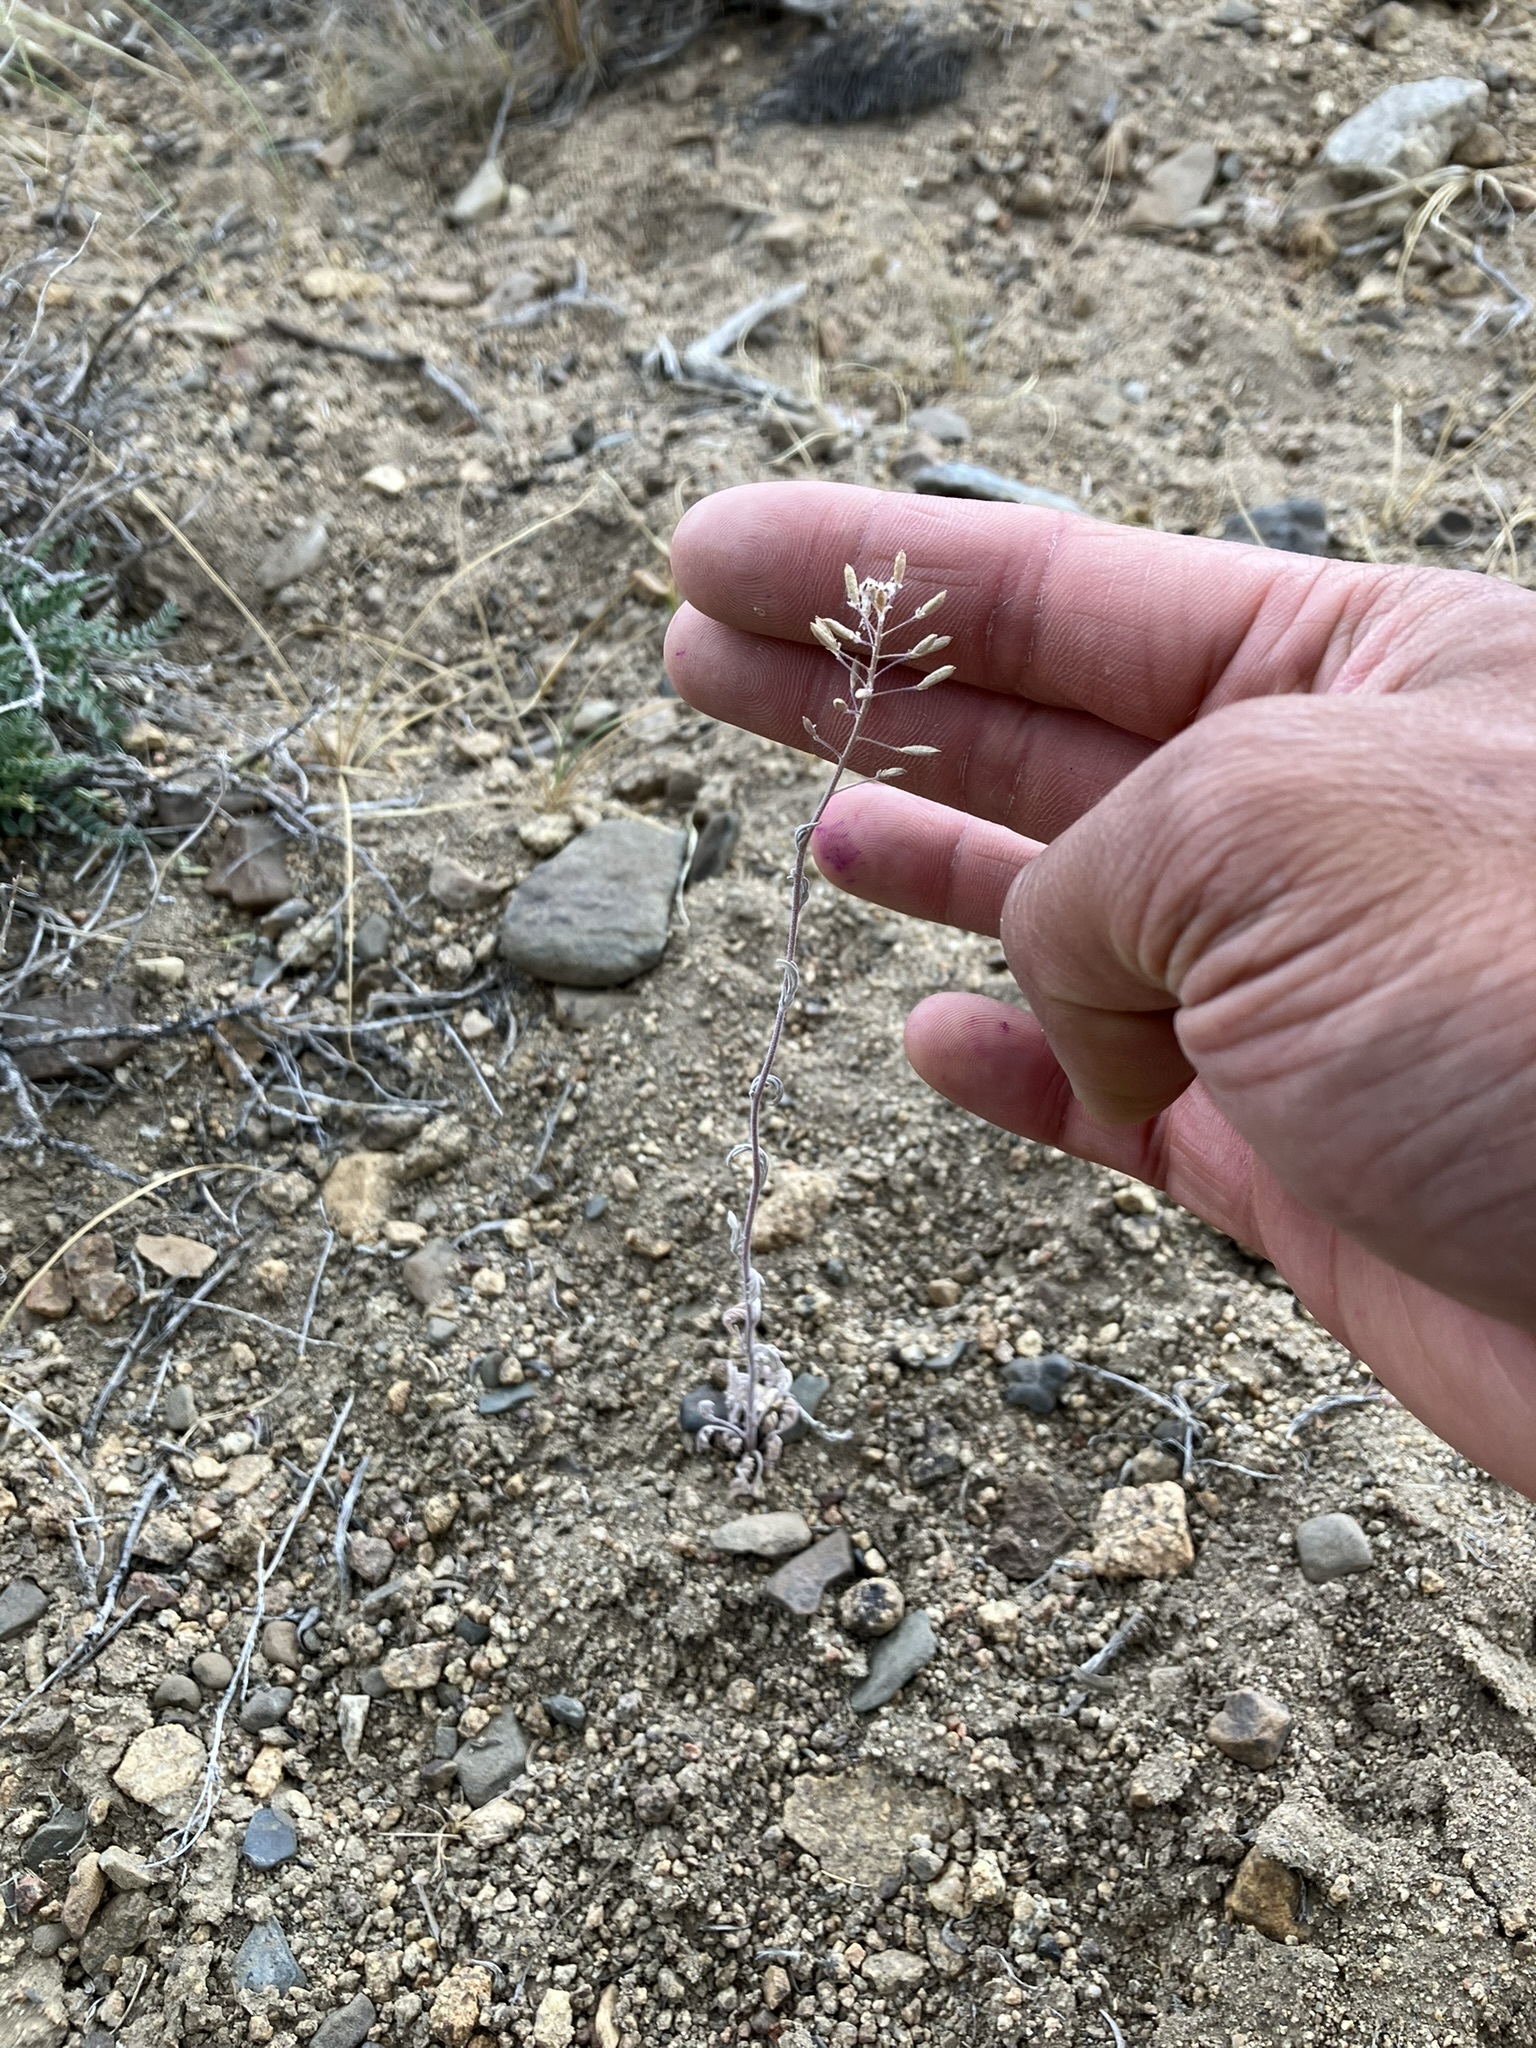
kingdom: Plantae
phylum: Tracheophyta
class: Magnoliopsida
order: Brassicales
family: Brassicaceae
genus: Descurainia
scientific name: Descurainia californica
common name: California tansy mustard
